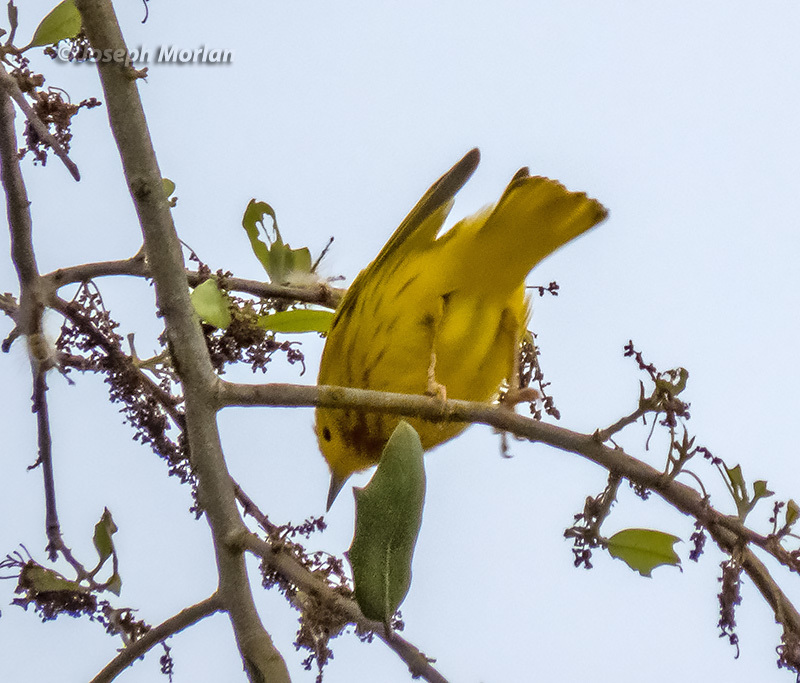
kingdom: Animalia
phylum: Chordata
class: Aves
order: Passeriformes
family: Parulidae
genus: Setophaga
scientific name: Setophaga petechia
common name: Yellow warbler
